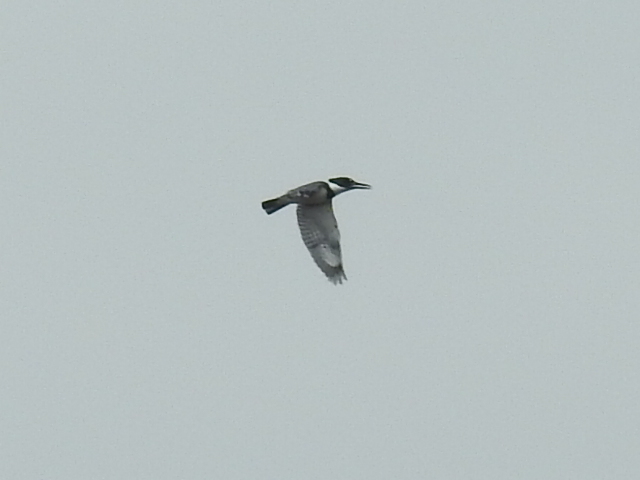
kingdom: Animalia
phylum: Chordata
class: Aves
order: Coraciiformes
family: Alcedinidae
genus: Megaceryle
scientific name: Megaceryle alcyon
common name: Belted kingfisher
